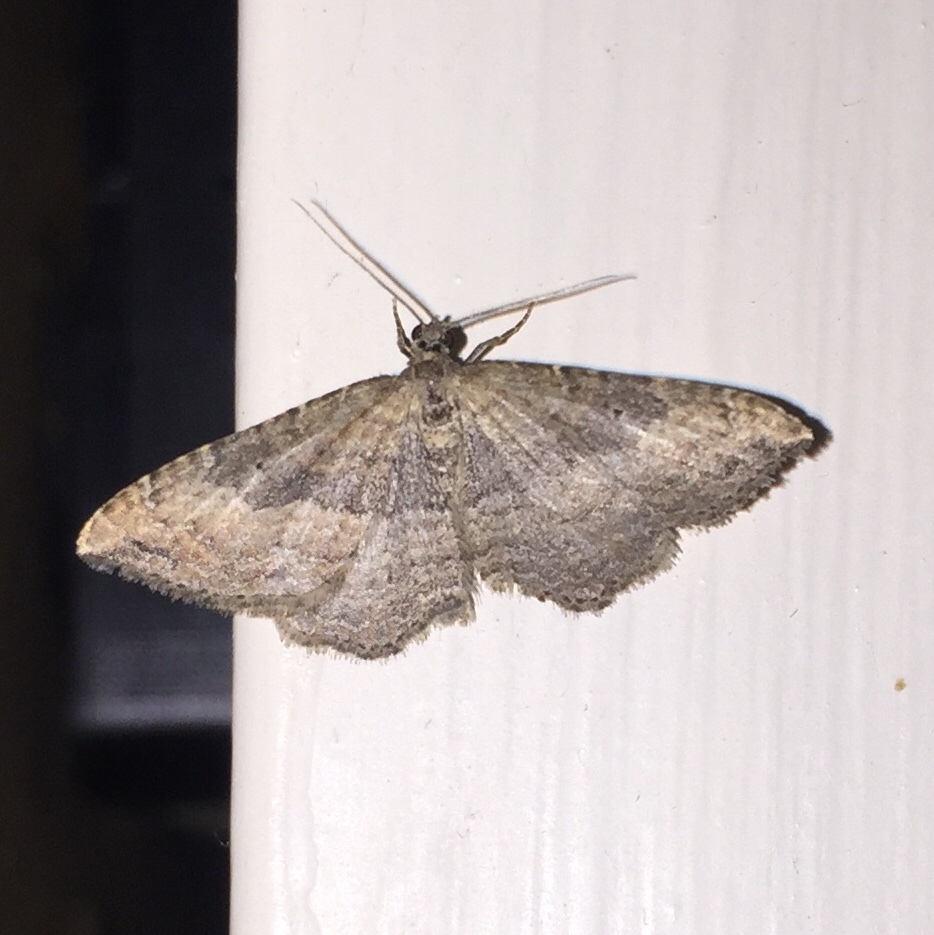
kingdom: Animalia
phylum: Arthropoda
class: Insecta
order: Lepidoptera
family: Geometridae
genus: Orthonama
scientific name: Orthonama obstipata
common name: The gem
